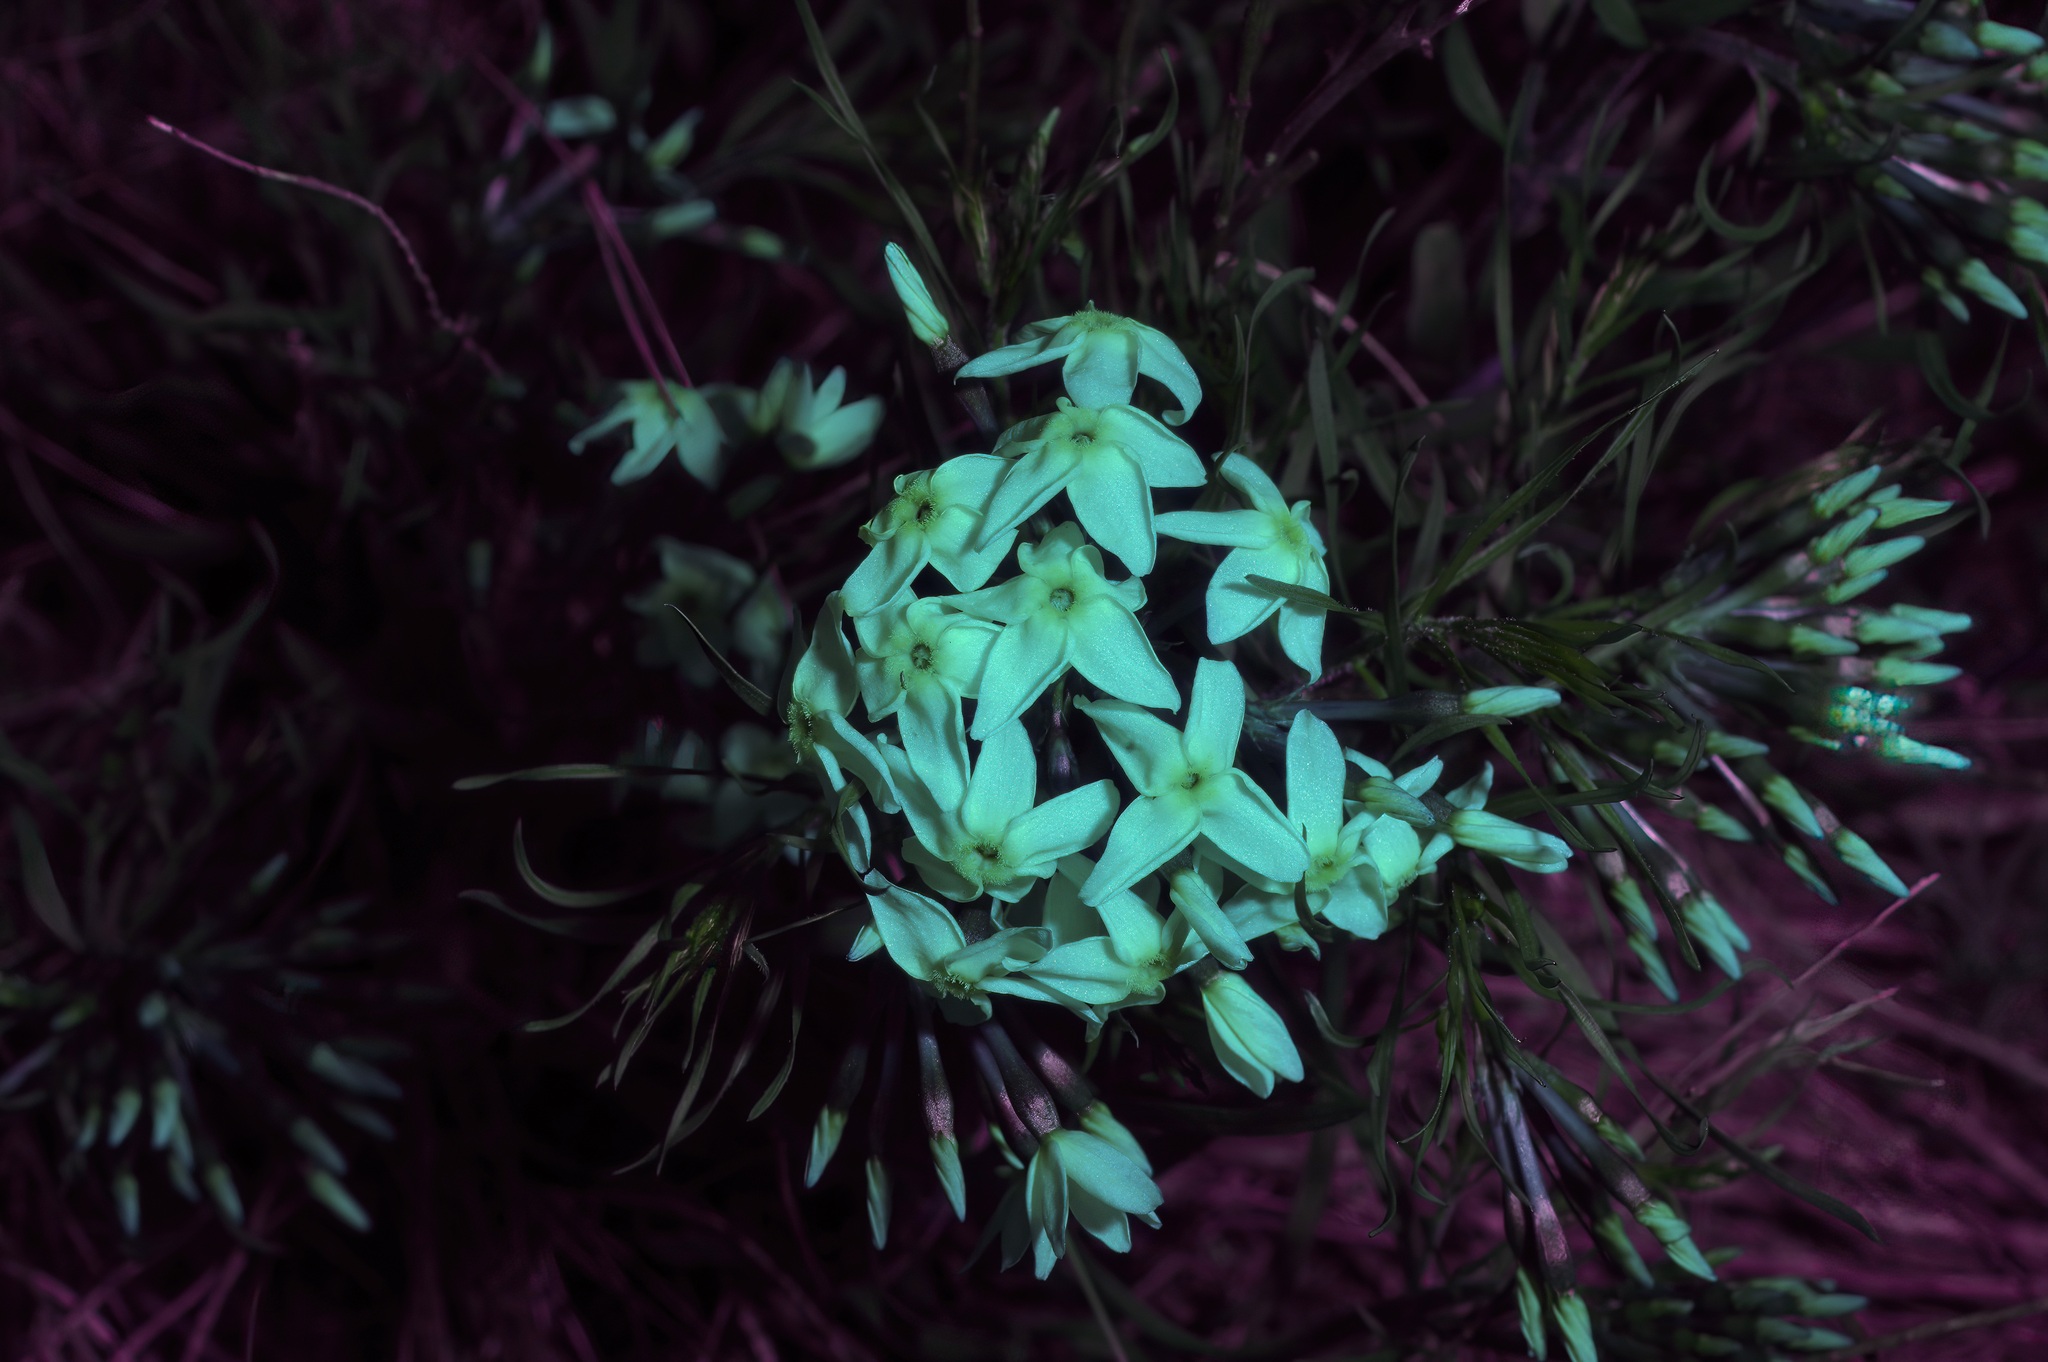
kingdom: Plantae
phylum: Tracheophyta
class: Magnoliopsida
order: Gentianales
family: Apocynaceae
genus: Amsonia
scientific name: Amsonia tharpii
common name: Feltleaf bluestar
